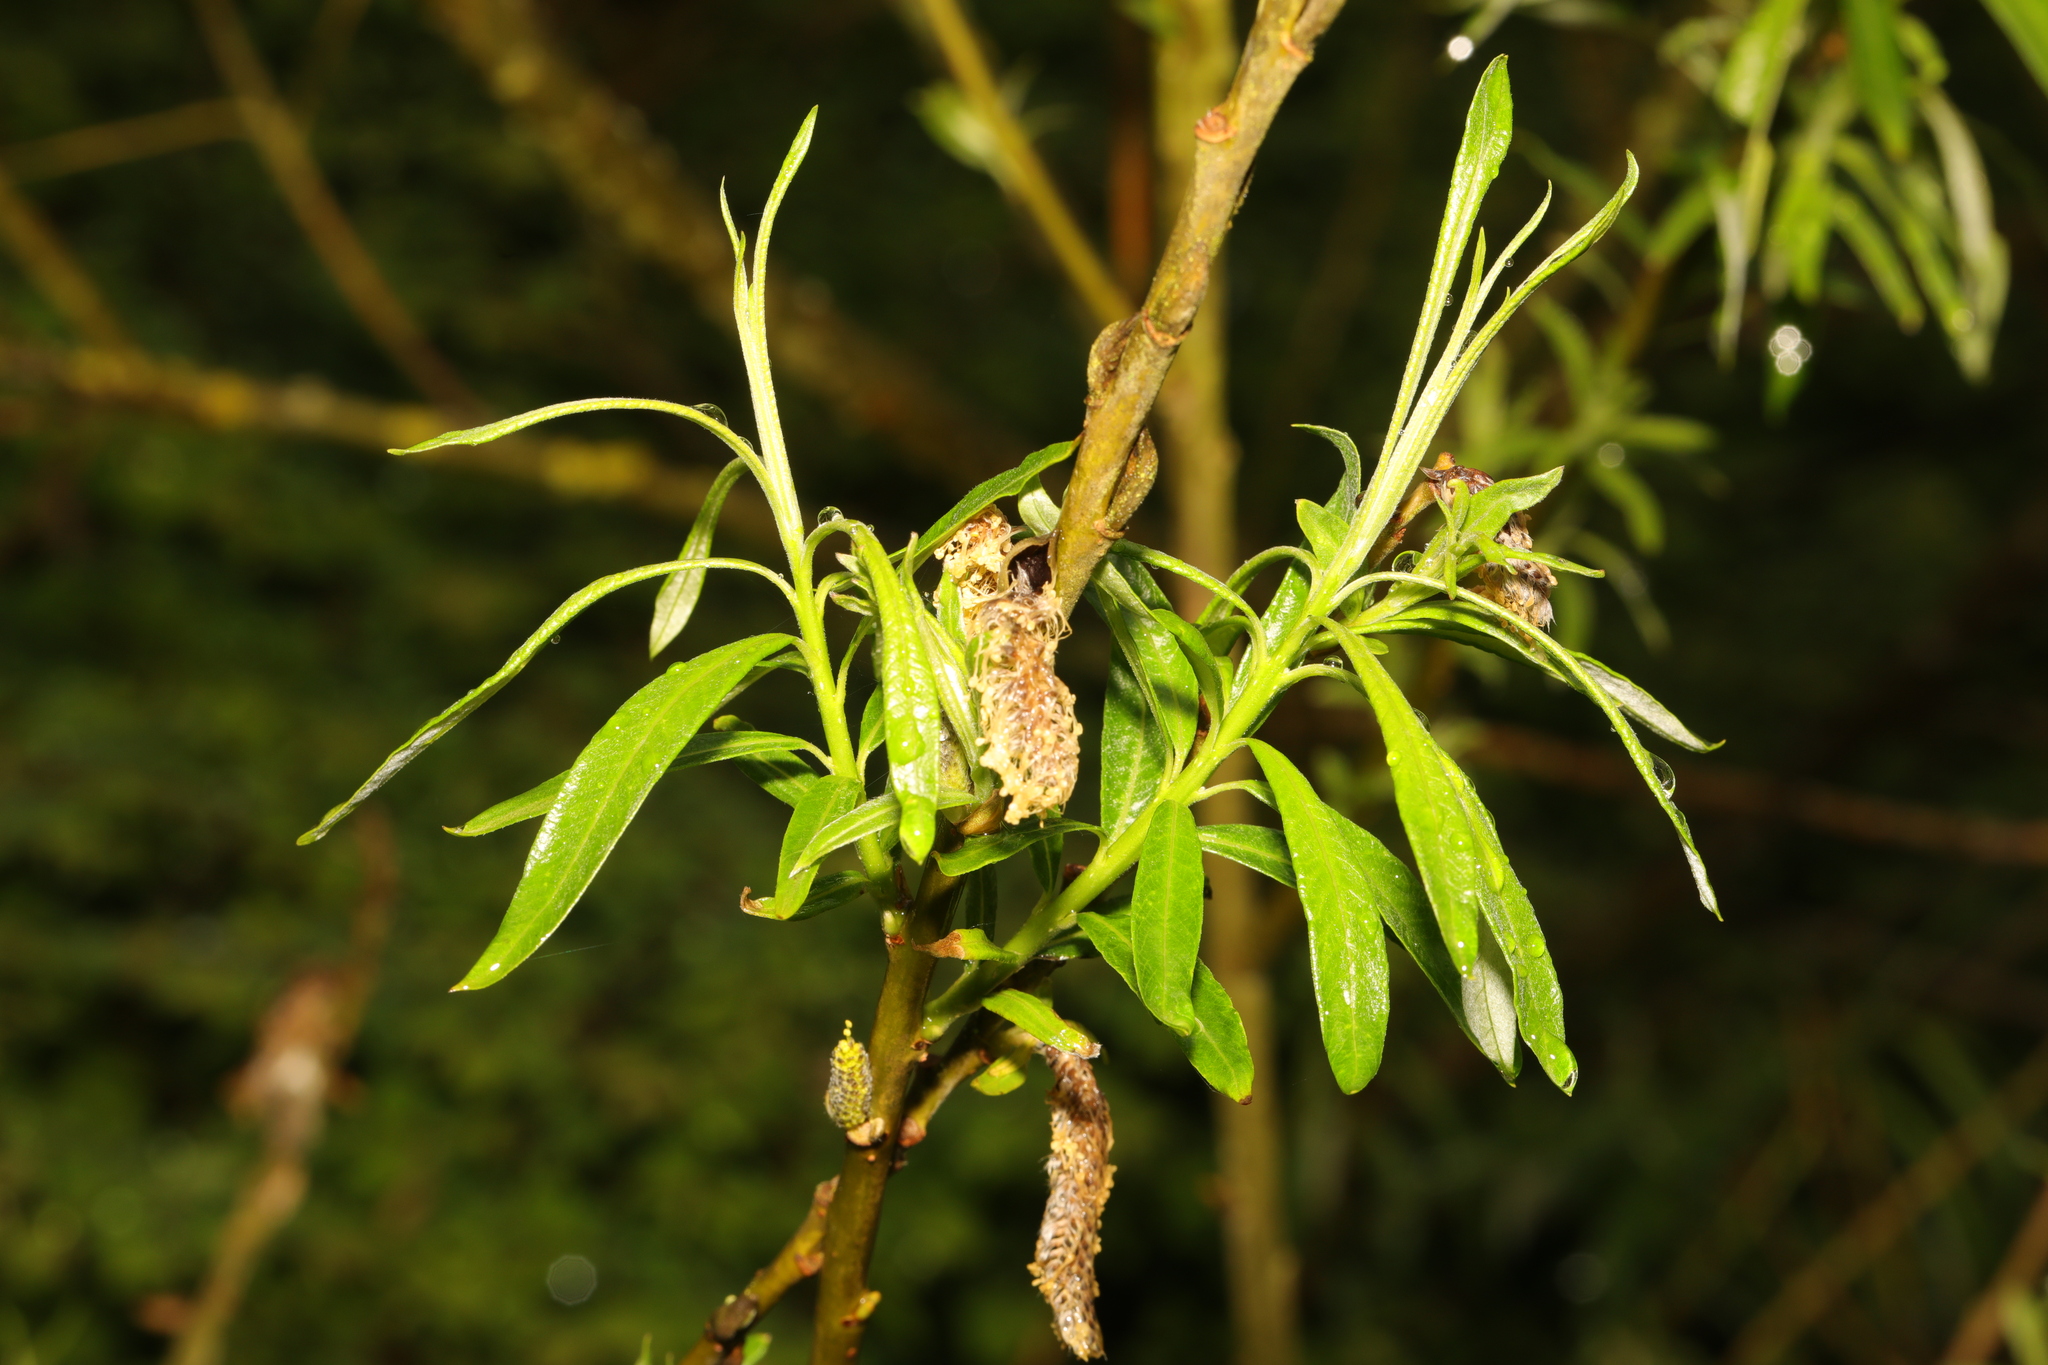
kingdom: Plantae
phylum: Tracheophyta
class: Magnoliopsida
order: Malpighiales
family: Salicaceae
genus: Salix
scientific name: Salix viminalis
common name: Osier
